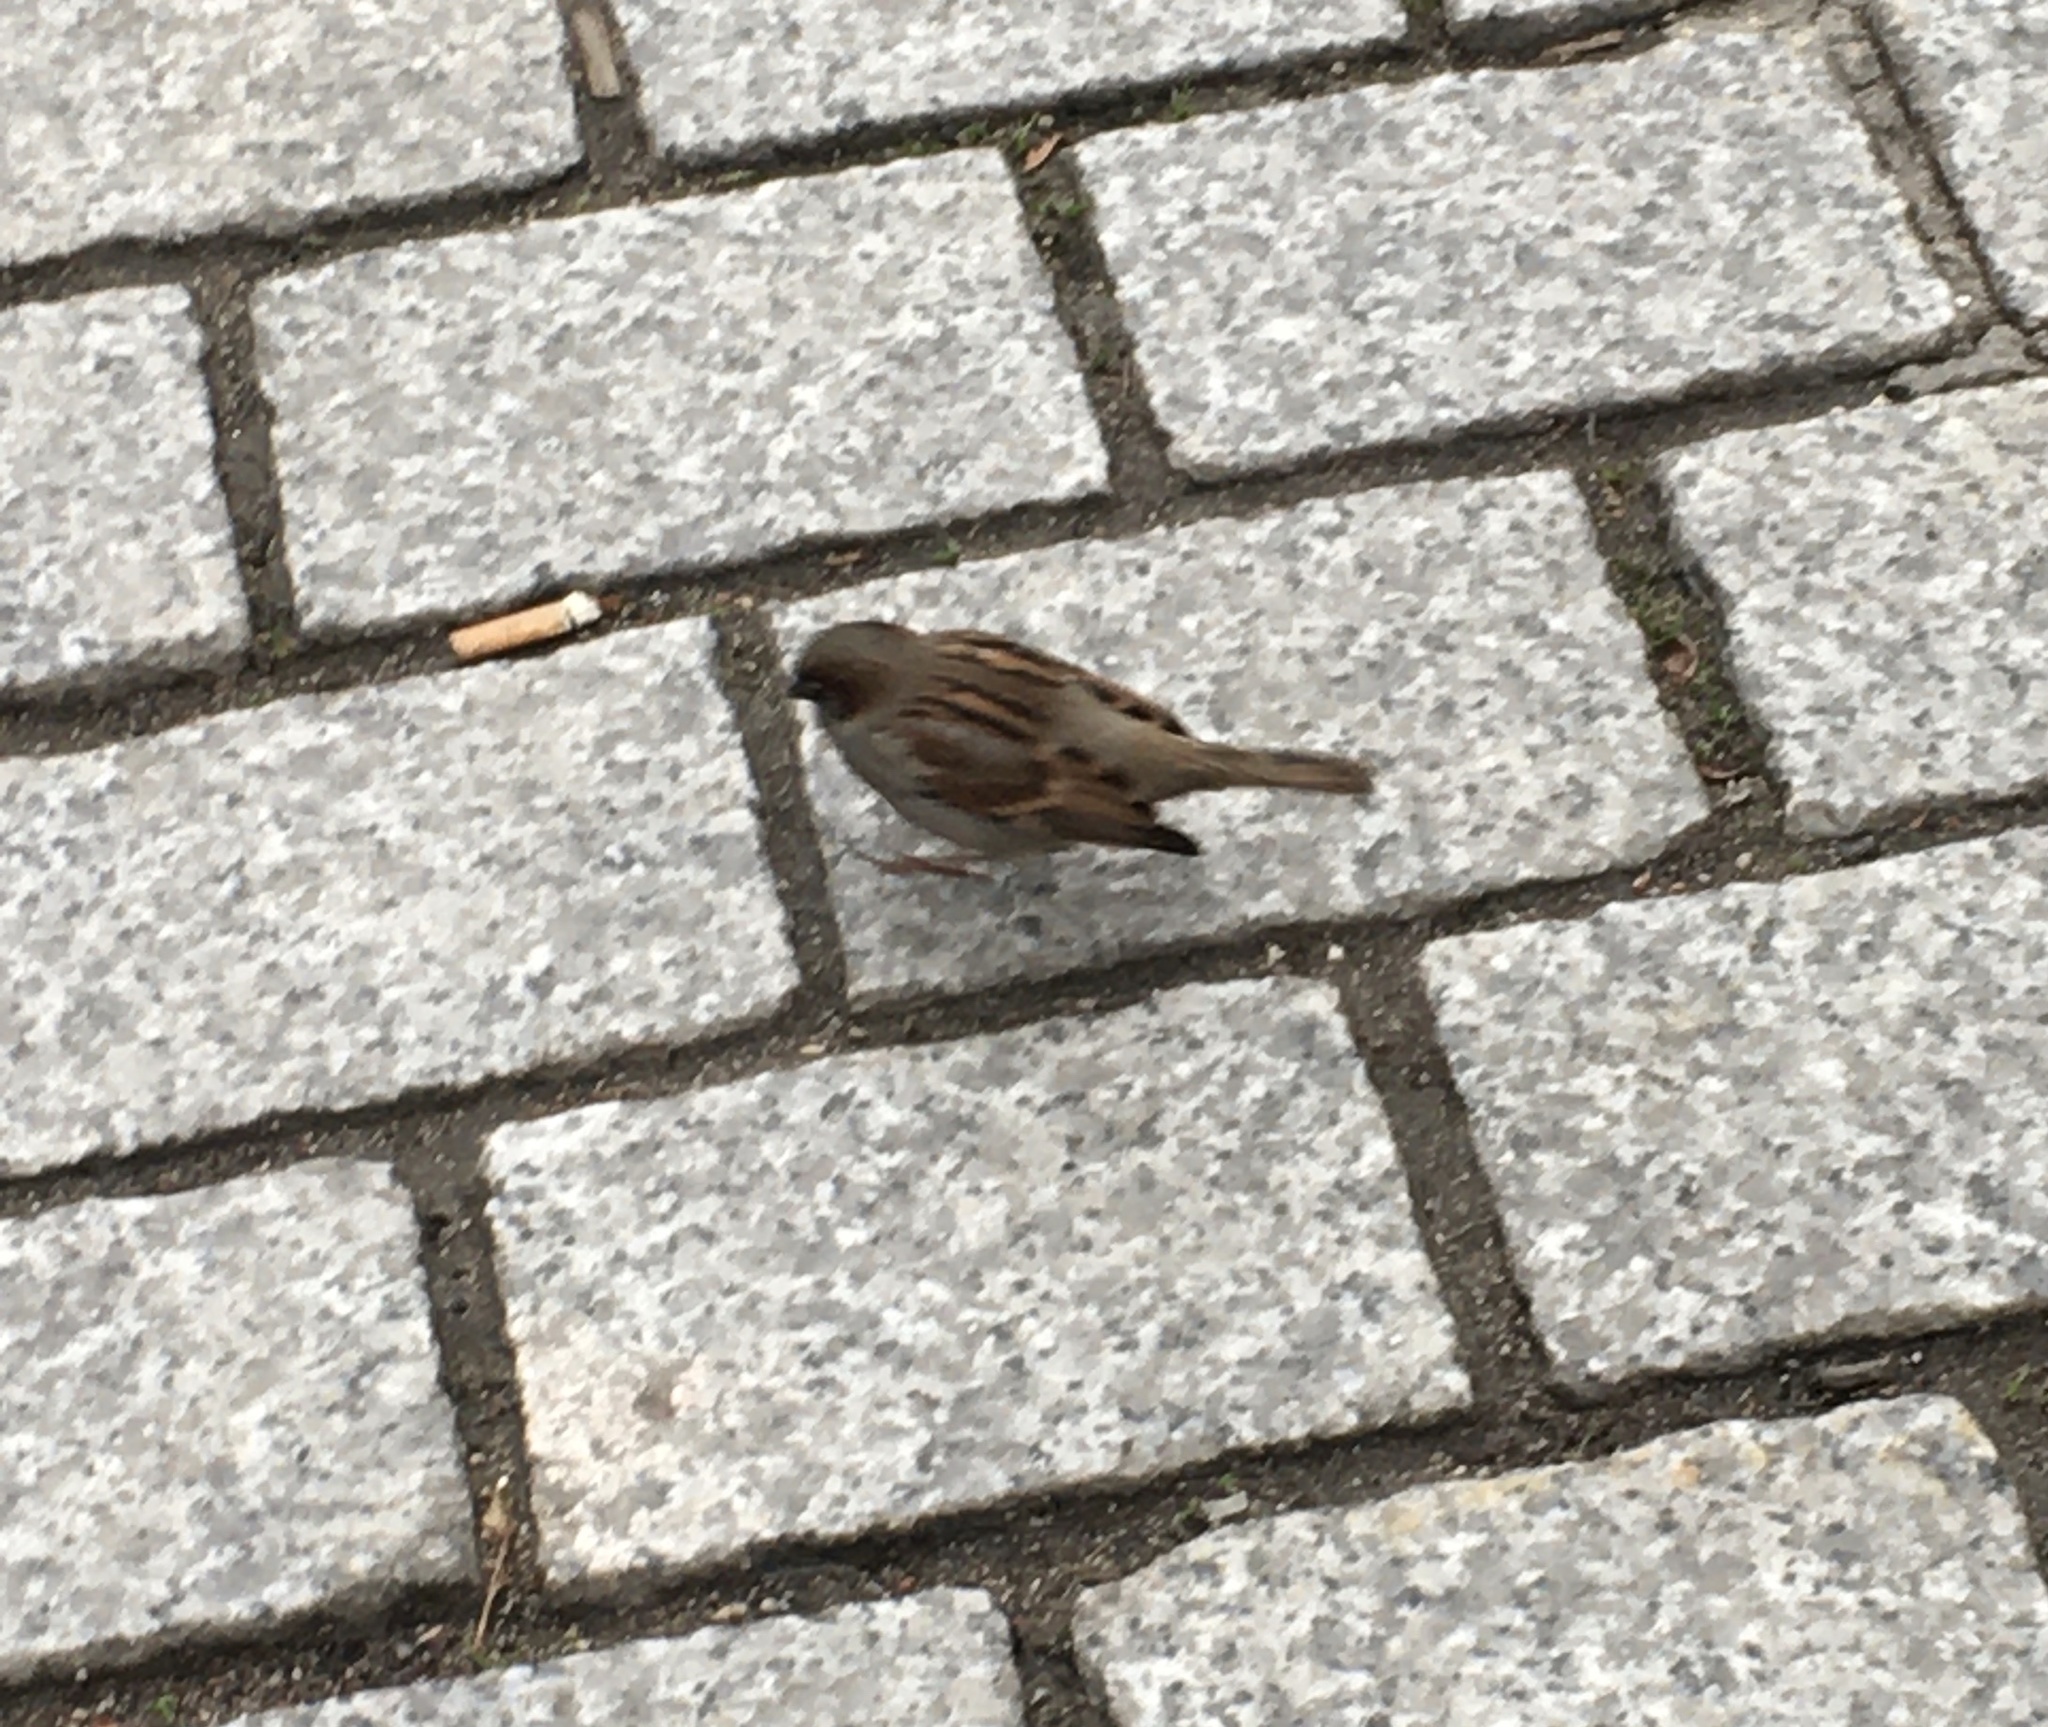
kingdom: Animalia
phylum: Chordata
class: Aves
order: Passeriformes
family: Passeridae
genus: Passer
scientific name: Passer domesticus
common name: House sparrow
